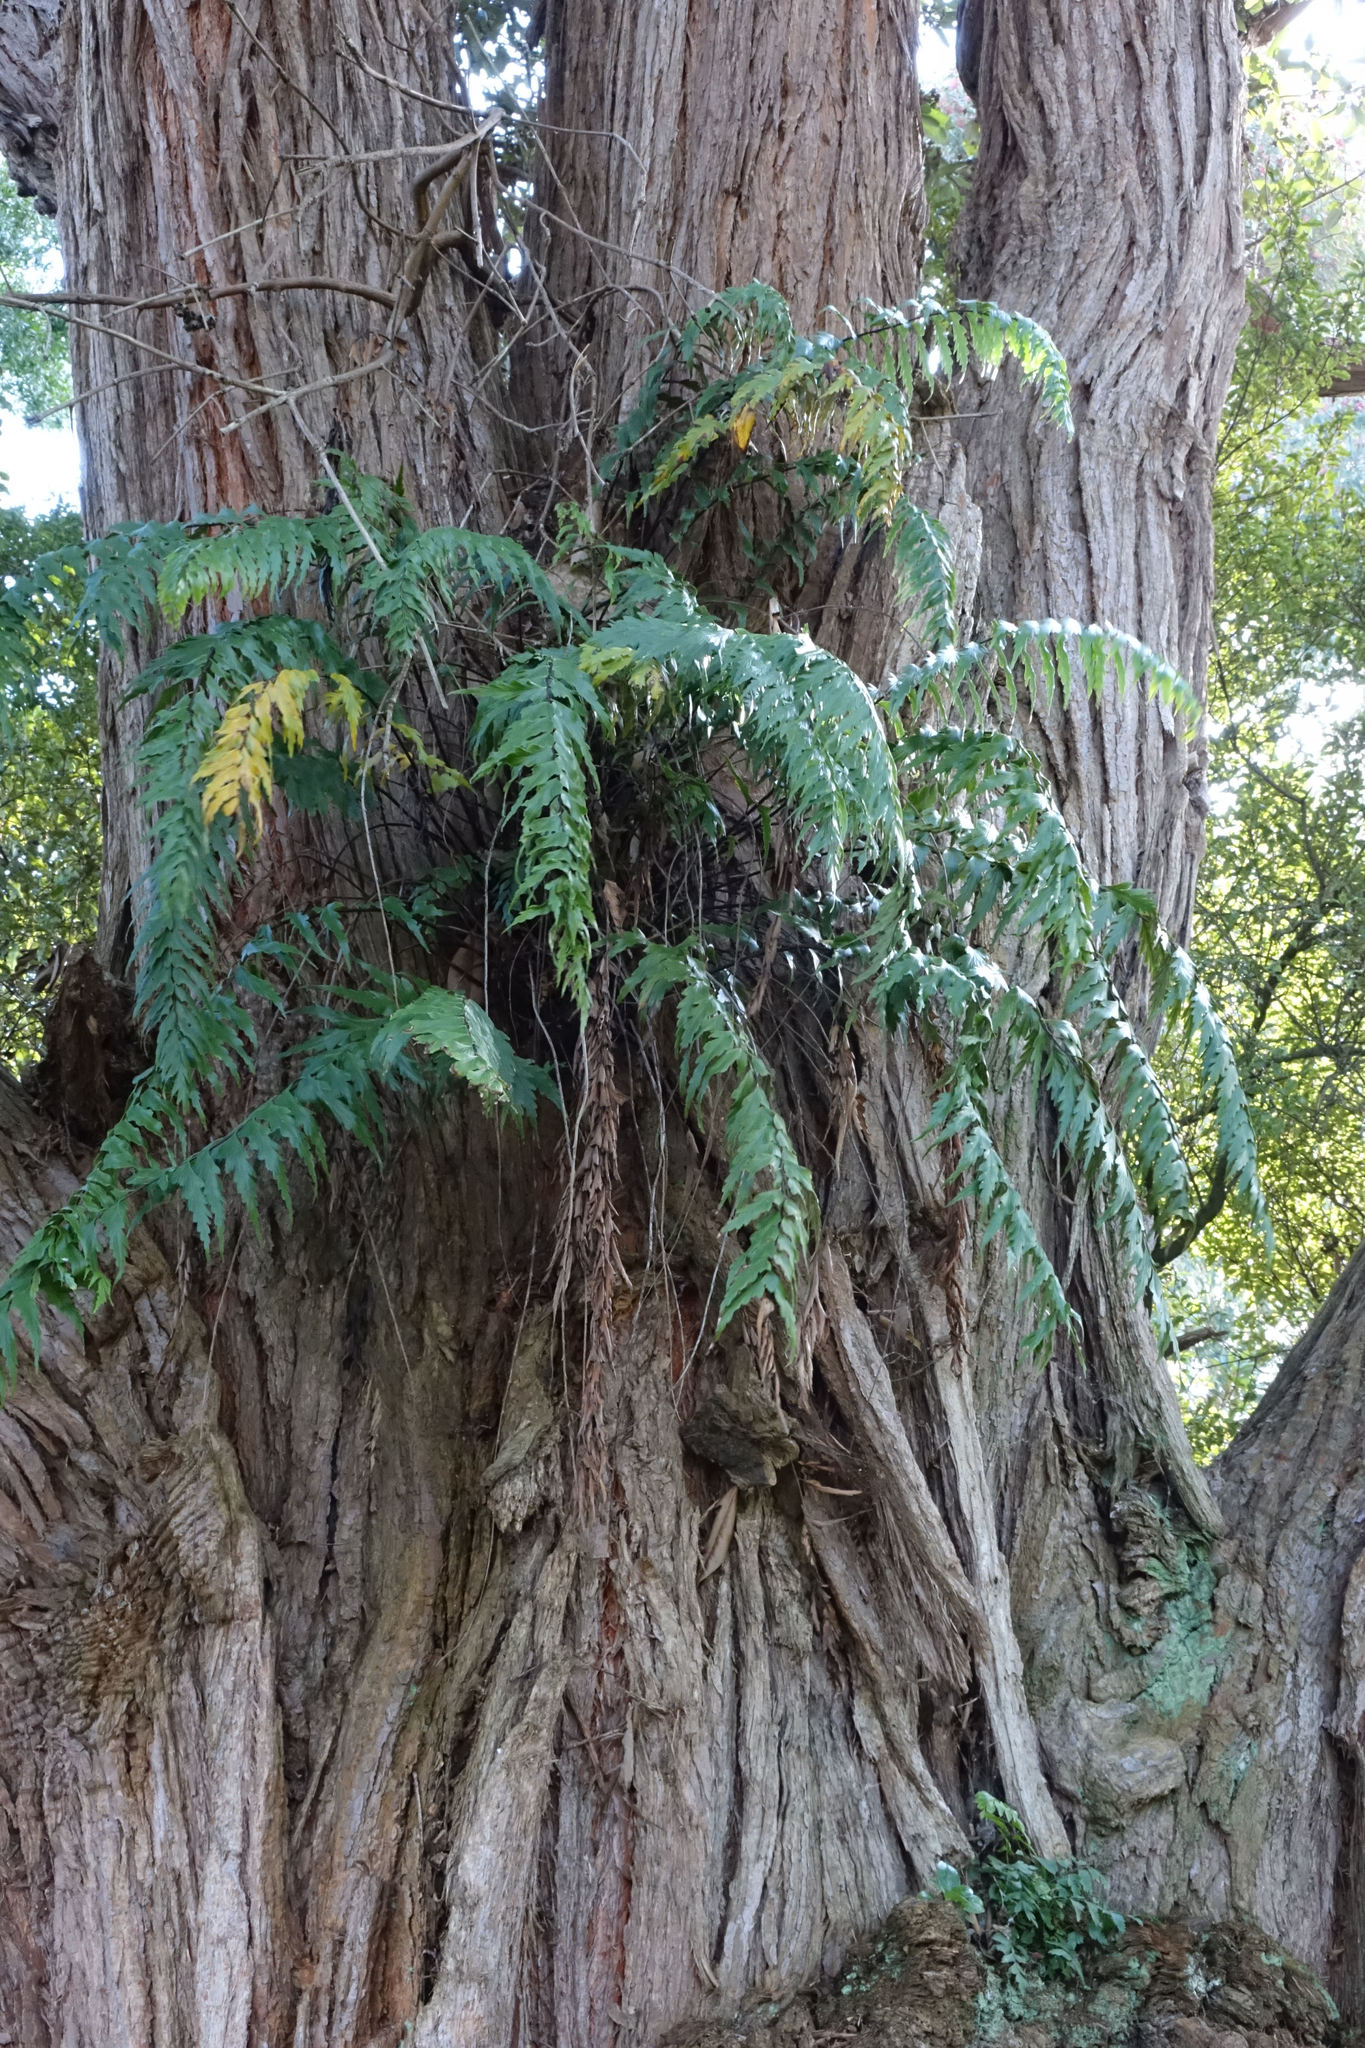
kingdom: Plantae
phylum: Tracheophyta
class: Polypodiopsida
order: Polypodiales
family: Aspleniaceae
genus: Asplenium
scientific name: Asplenium polyodon
